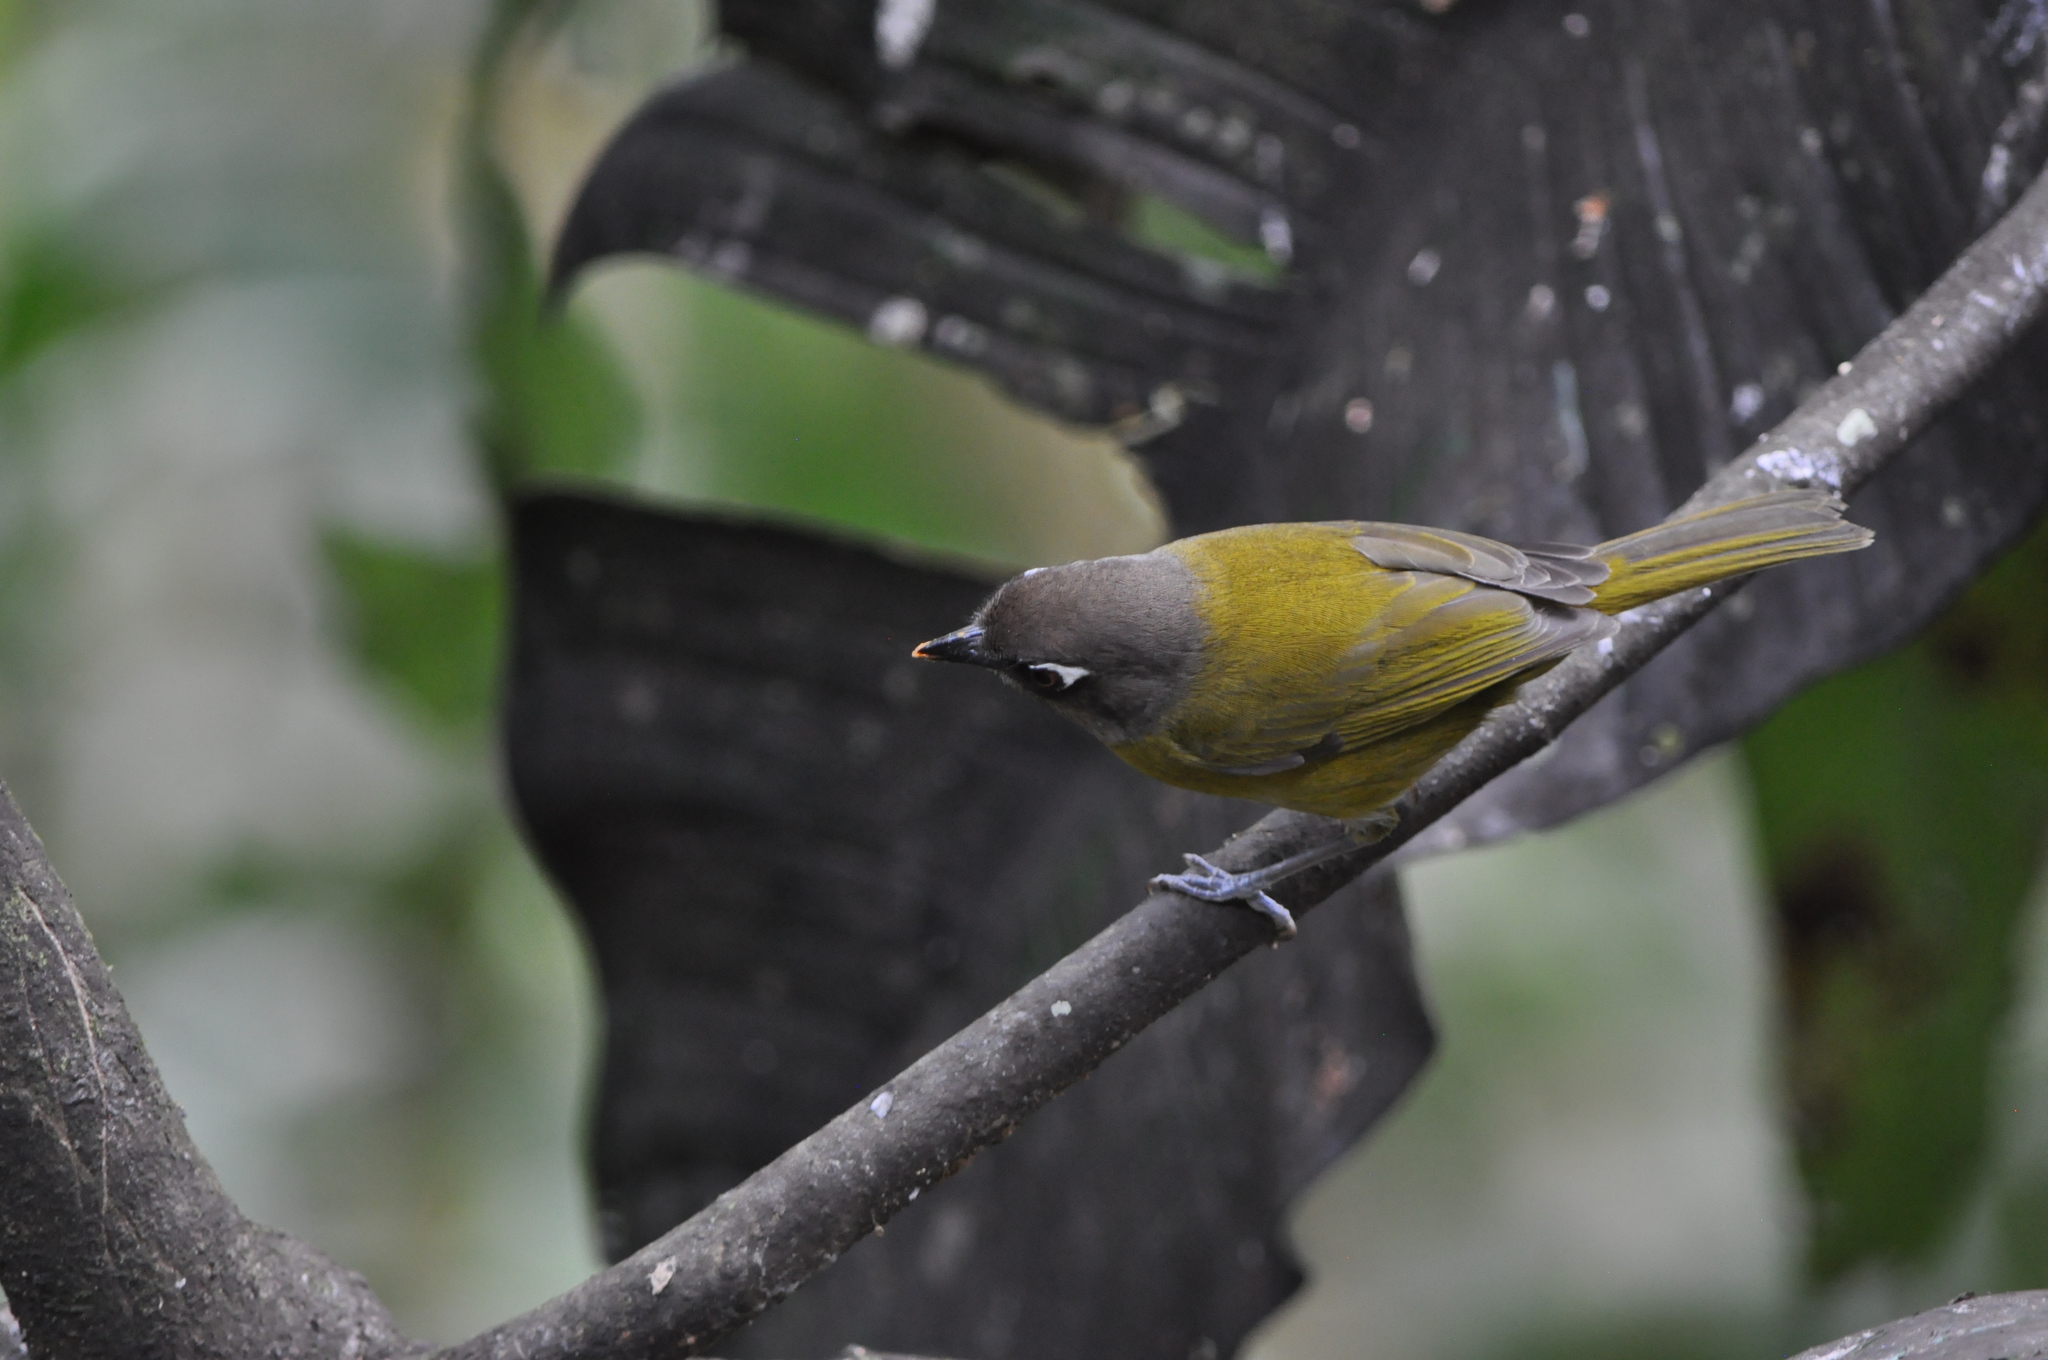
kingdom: Animalia
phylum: Chordata
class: Aves
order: Passeriformes
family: Passerellidae
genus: Chlorospingus
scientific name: Chlorospingus flavopectus
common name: Common chlorospingus
